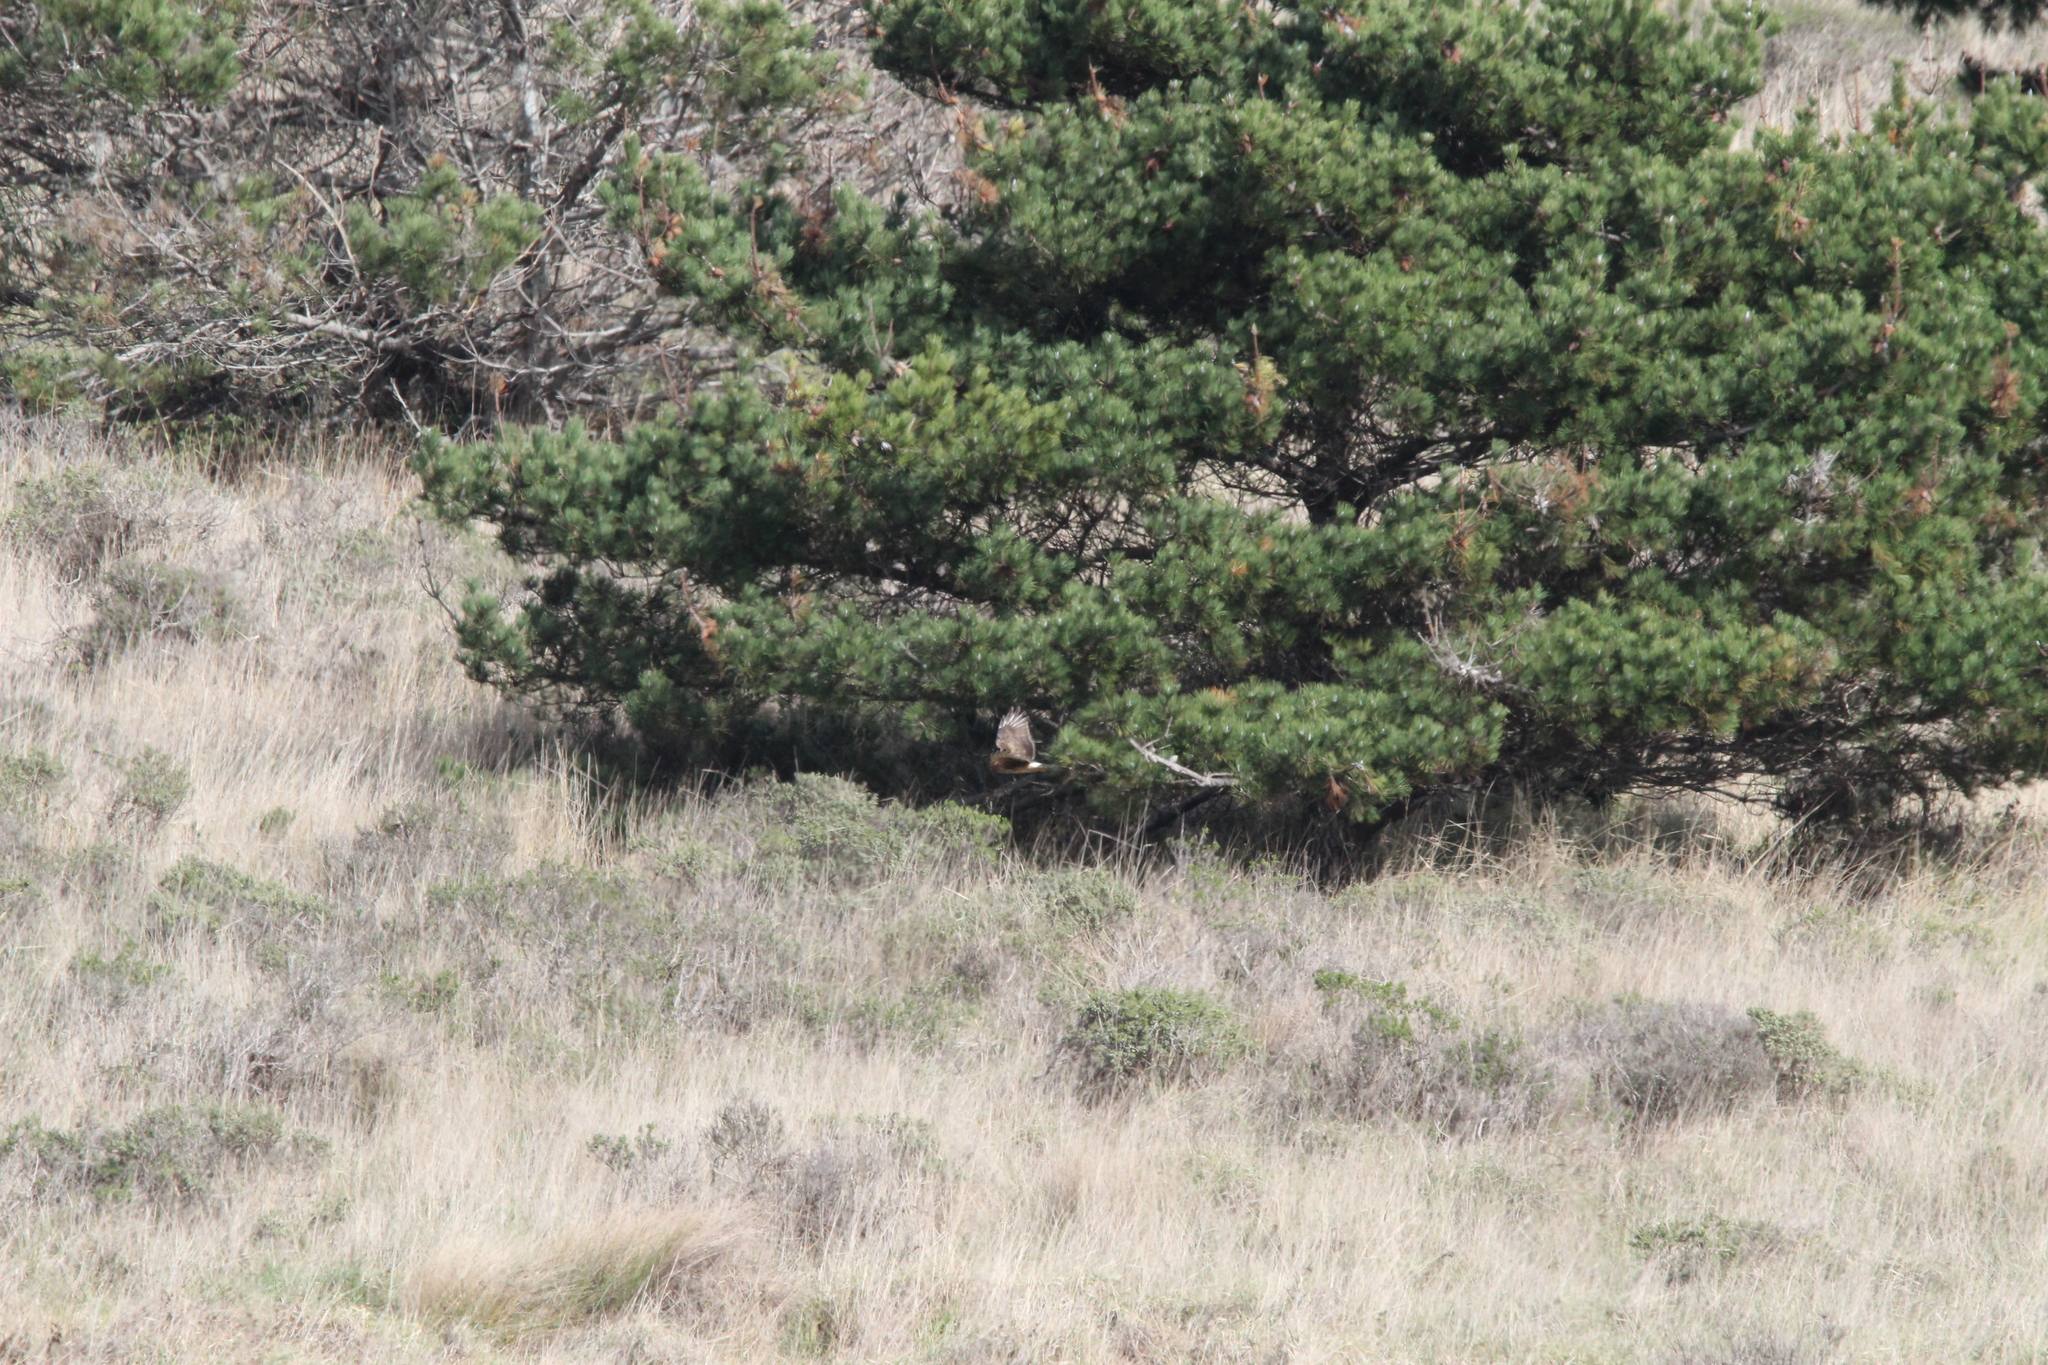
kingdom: Animalia
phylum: Chordata
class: Aves
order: Accipitriformes
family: Accipitridae
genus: Circus
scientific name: Circus cyaneus
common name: Hen harrier
